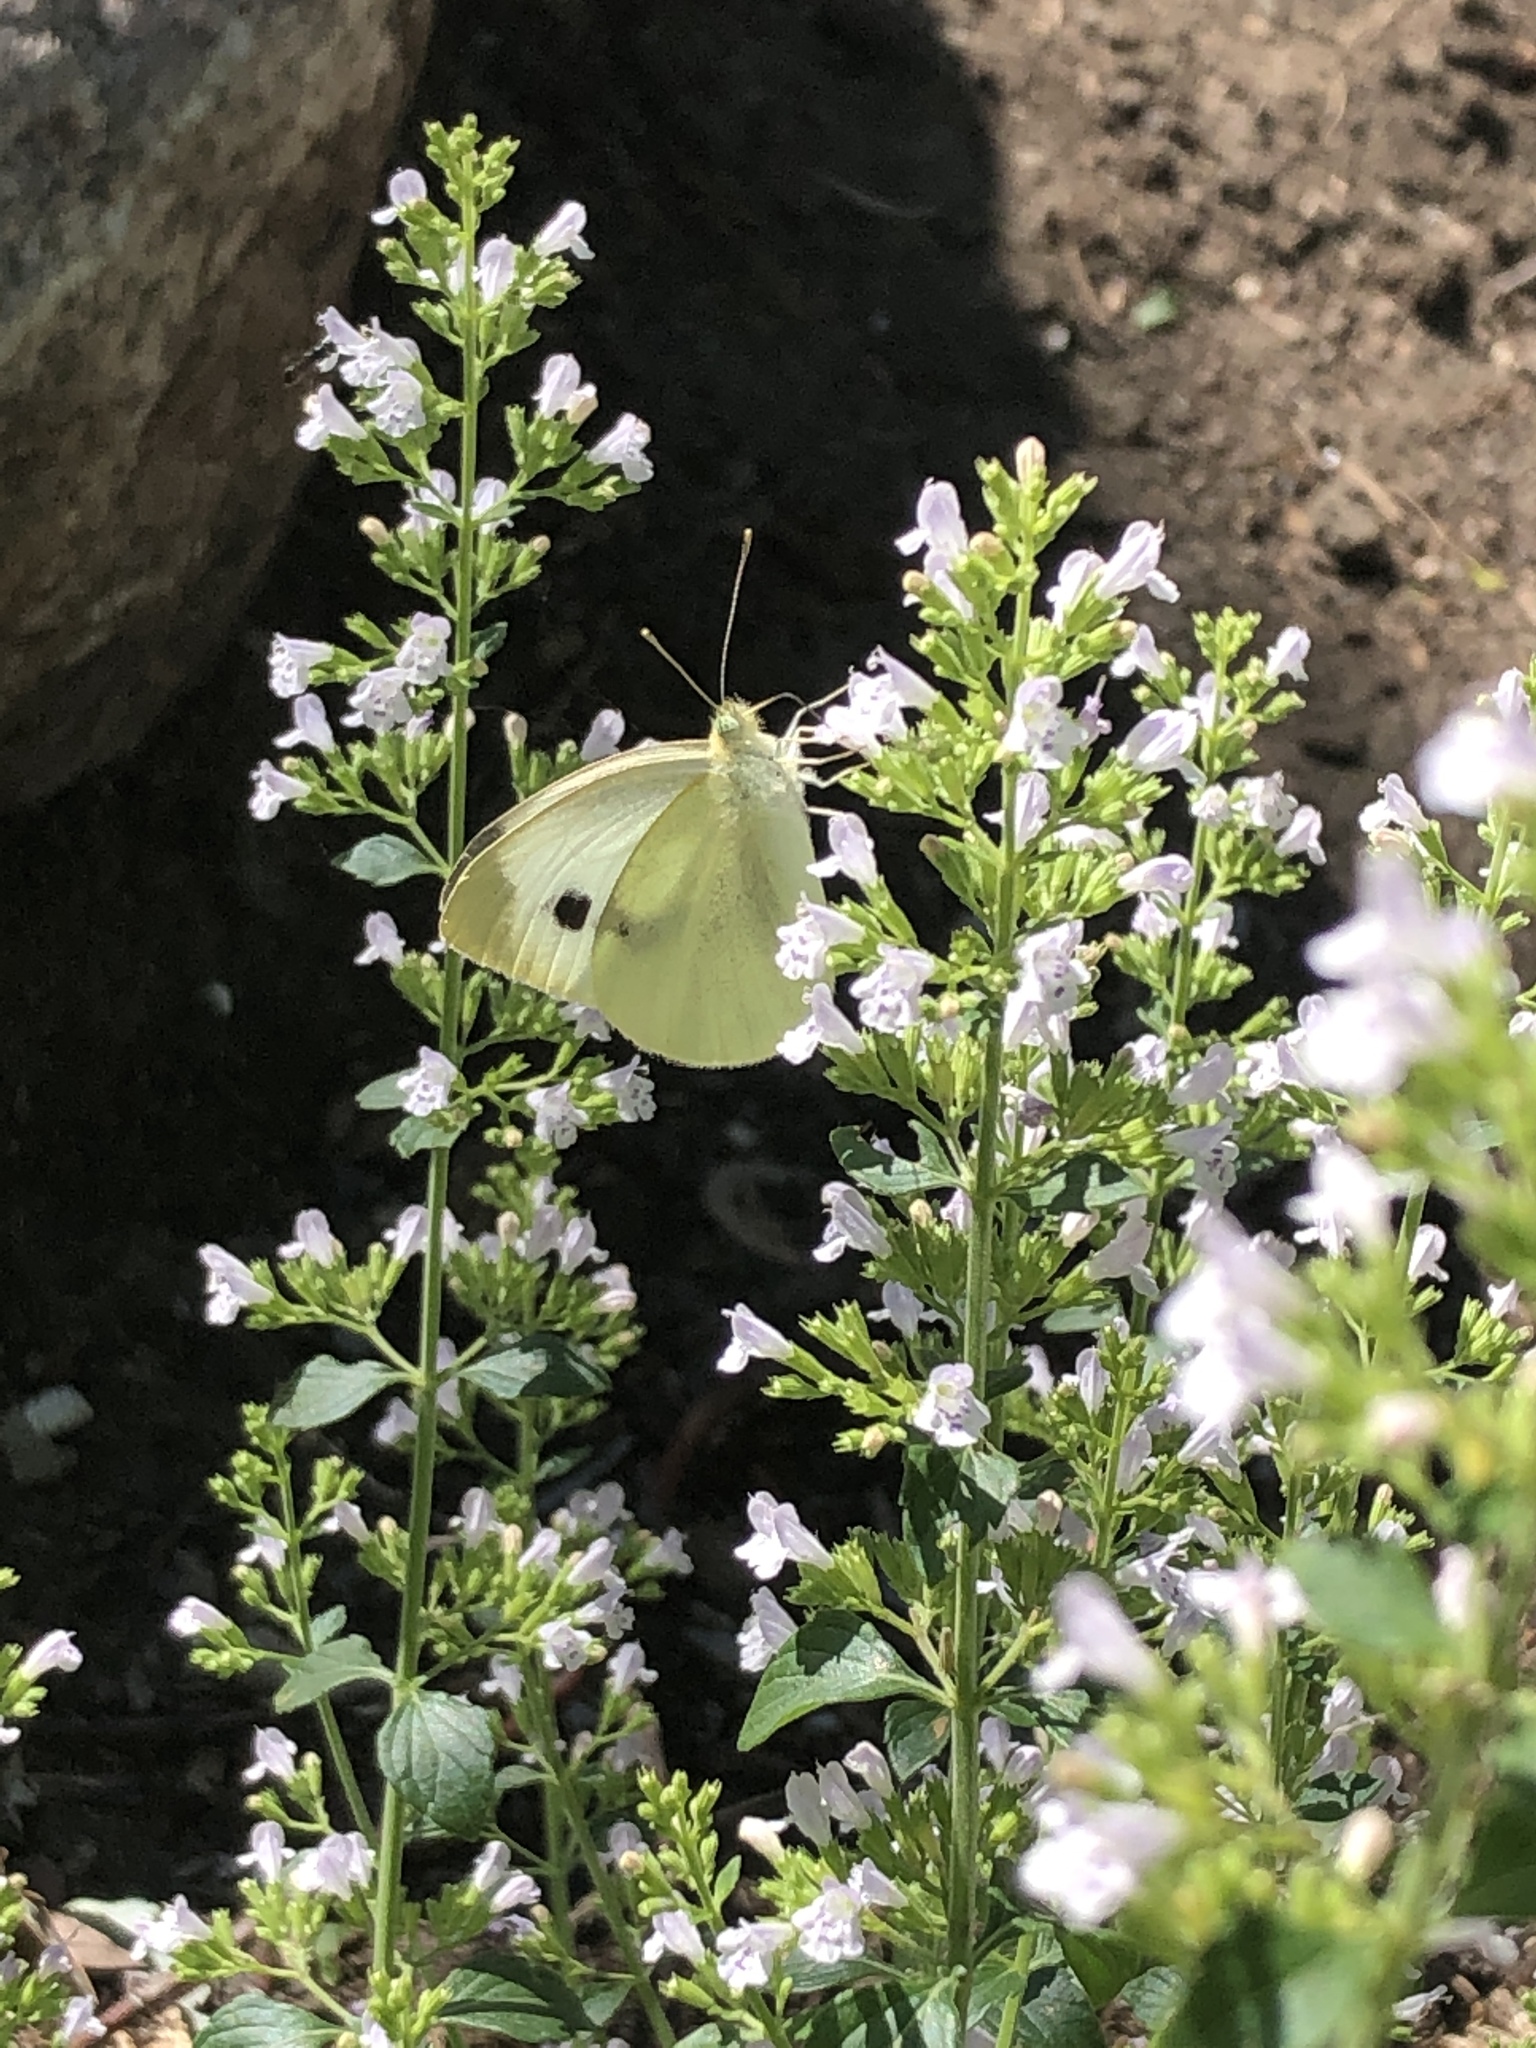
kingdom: Animalia
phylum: Arthropoda
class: Insecta
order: Lepidoptera
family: Pieridae
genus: Pieris
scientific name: Pieris rapae
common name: Small white
